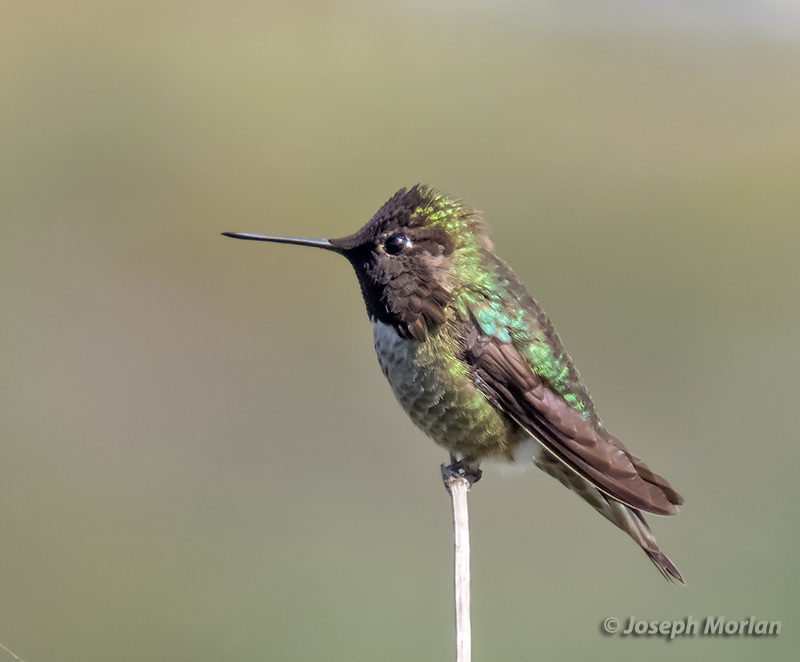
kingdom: Animalia
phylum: Chordata
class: Aves
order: Apodiformes
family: Trochilidae
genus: Calypte
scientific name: Calypte anna
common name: Anna's hummingbird
